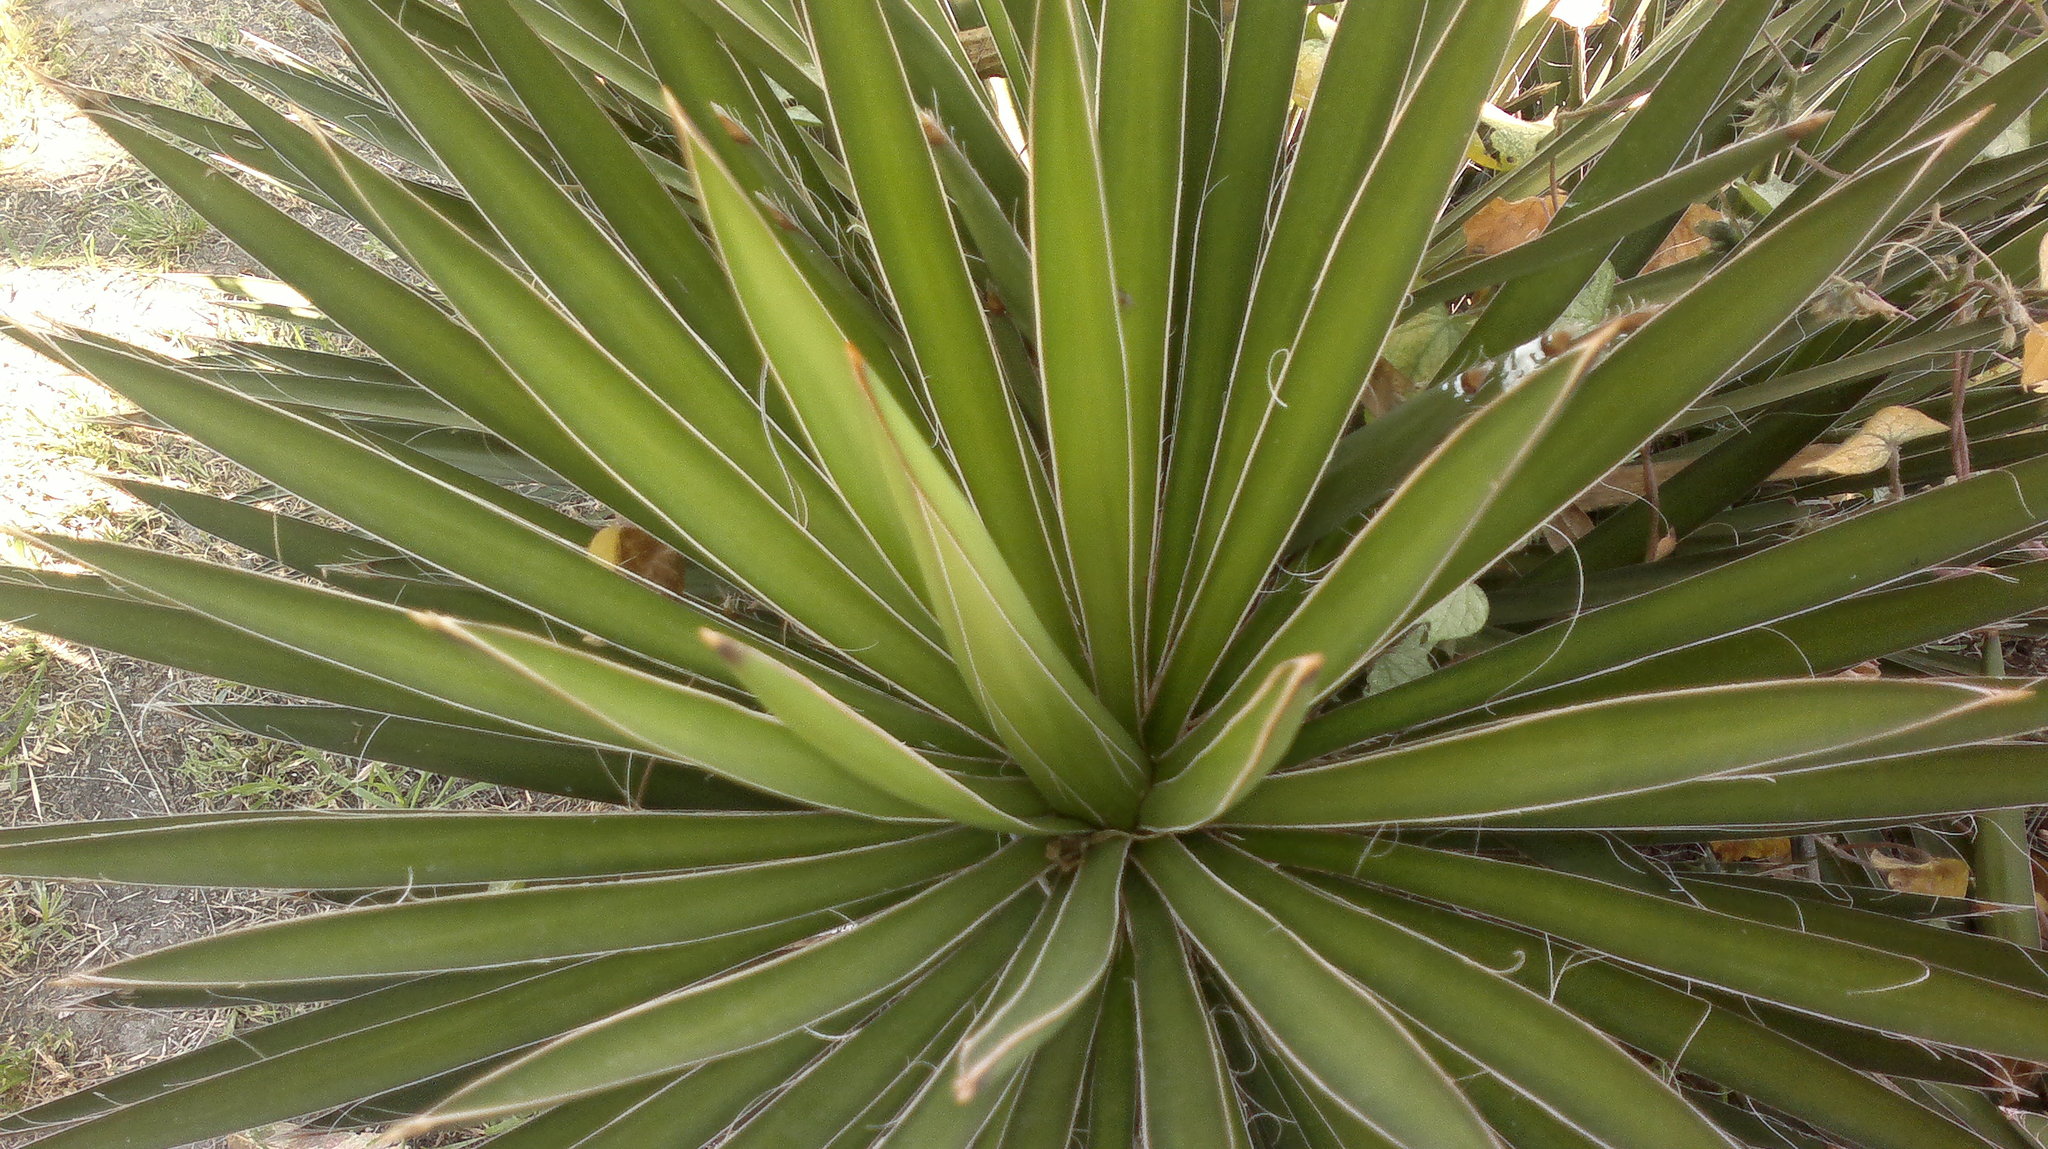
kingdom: Plantae
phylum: Tracheophyta
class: Liliopsida
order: Asparagales
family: Asparagaceae
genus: Yucca
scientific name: Yucca filifera
